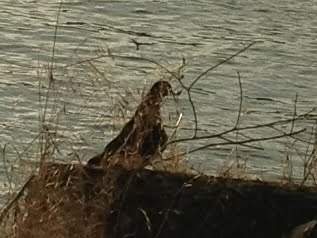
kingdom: Animalia
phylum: Chordata
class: Aves
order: Columbiformes
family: Columbidae
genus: Columba
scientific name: Columba livia
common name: Rock pigeon
